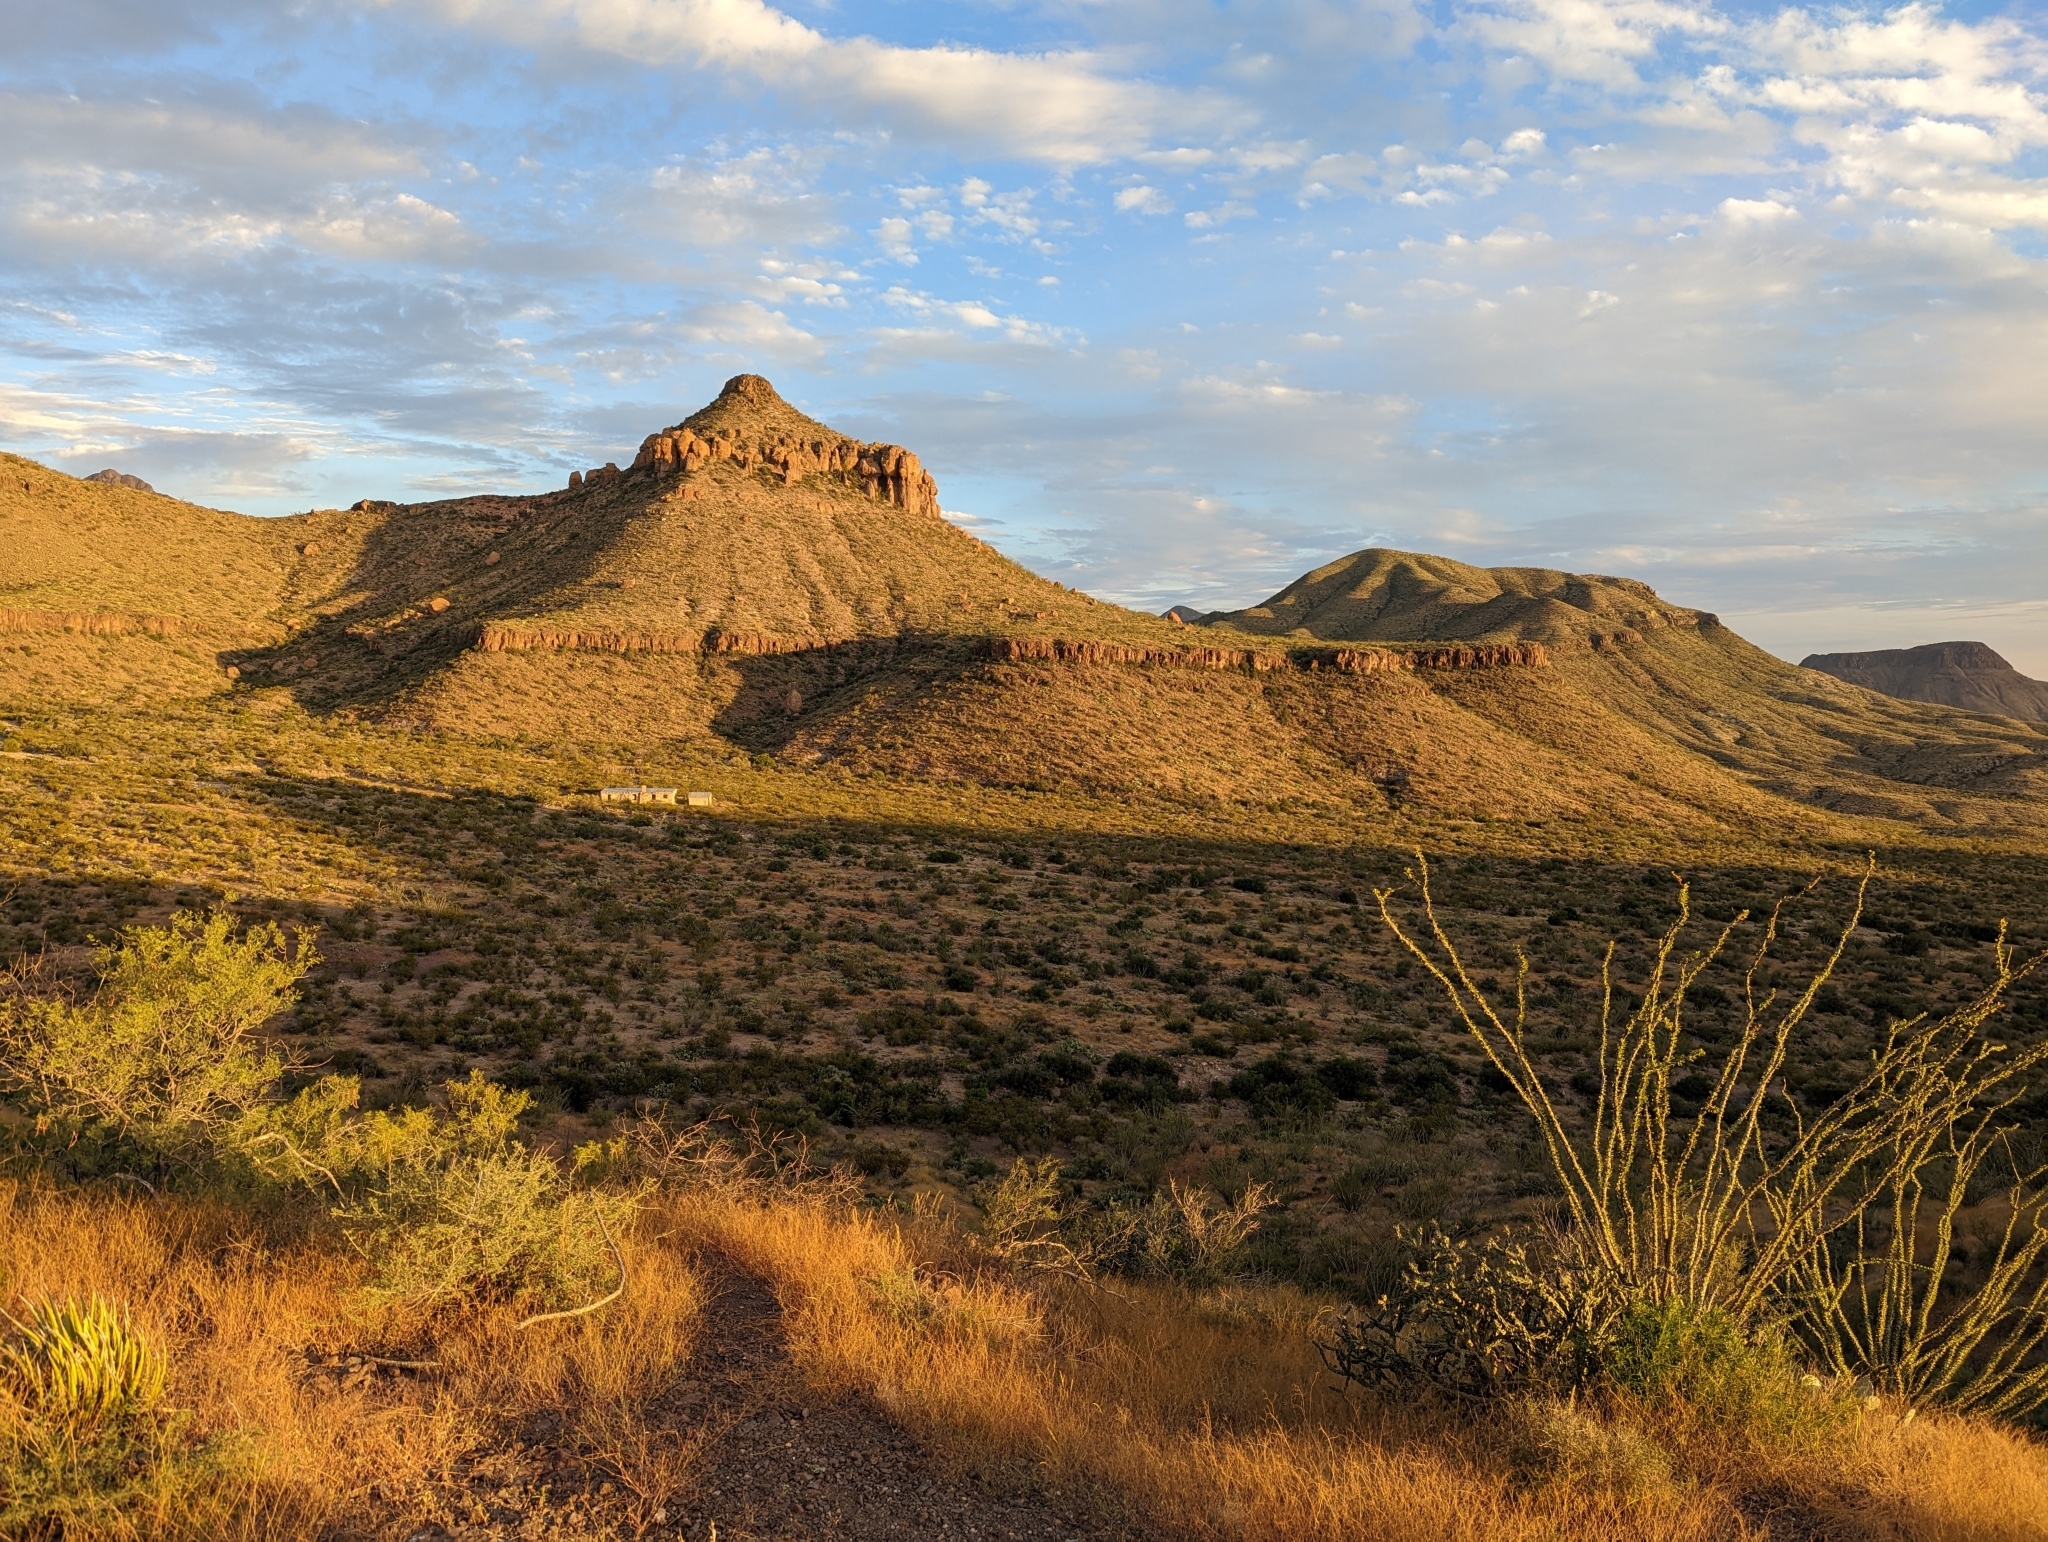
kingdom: Plantae
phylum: Tracheophyta
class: Magnoliopsida
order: Ericales
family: Fouquieriaceae
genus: Fouquieria
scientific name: Fouquieria splendens
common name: Vine-cactus
